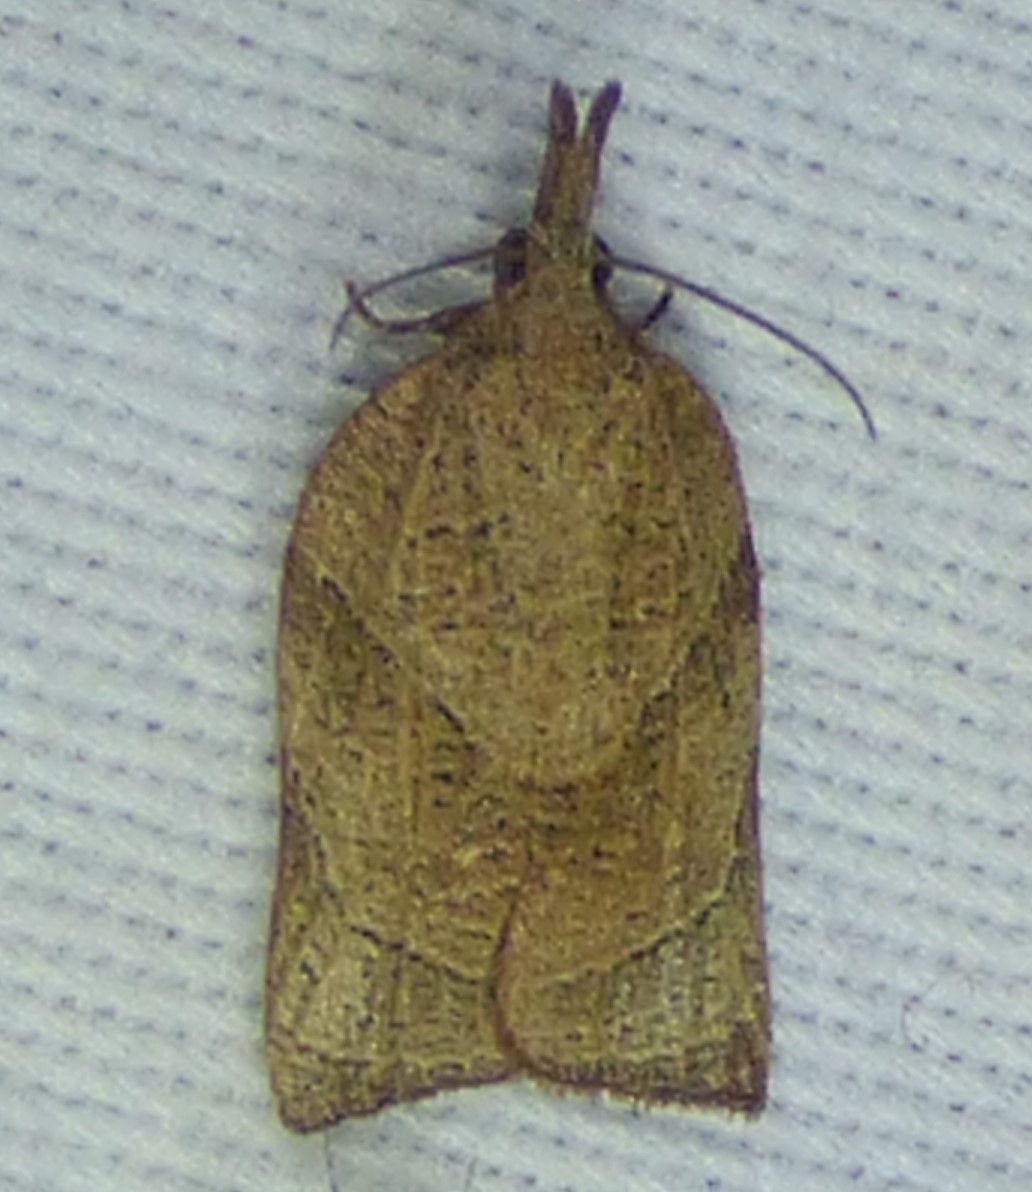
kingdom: Animalia
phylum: Arthropoda
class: Insecta
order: Lepidoptera
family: Tortricidae
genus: Platynota
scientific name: Platynota rostrana
